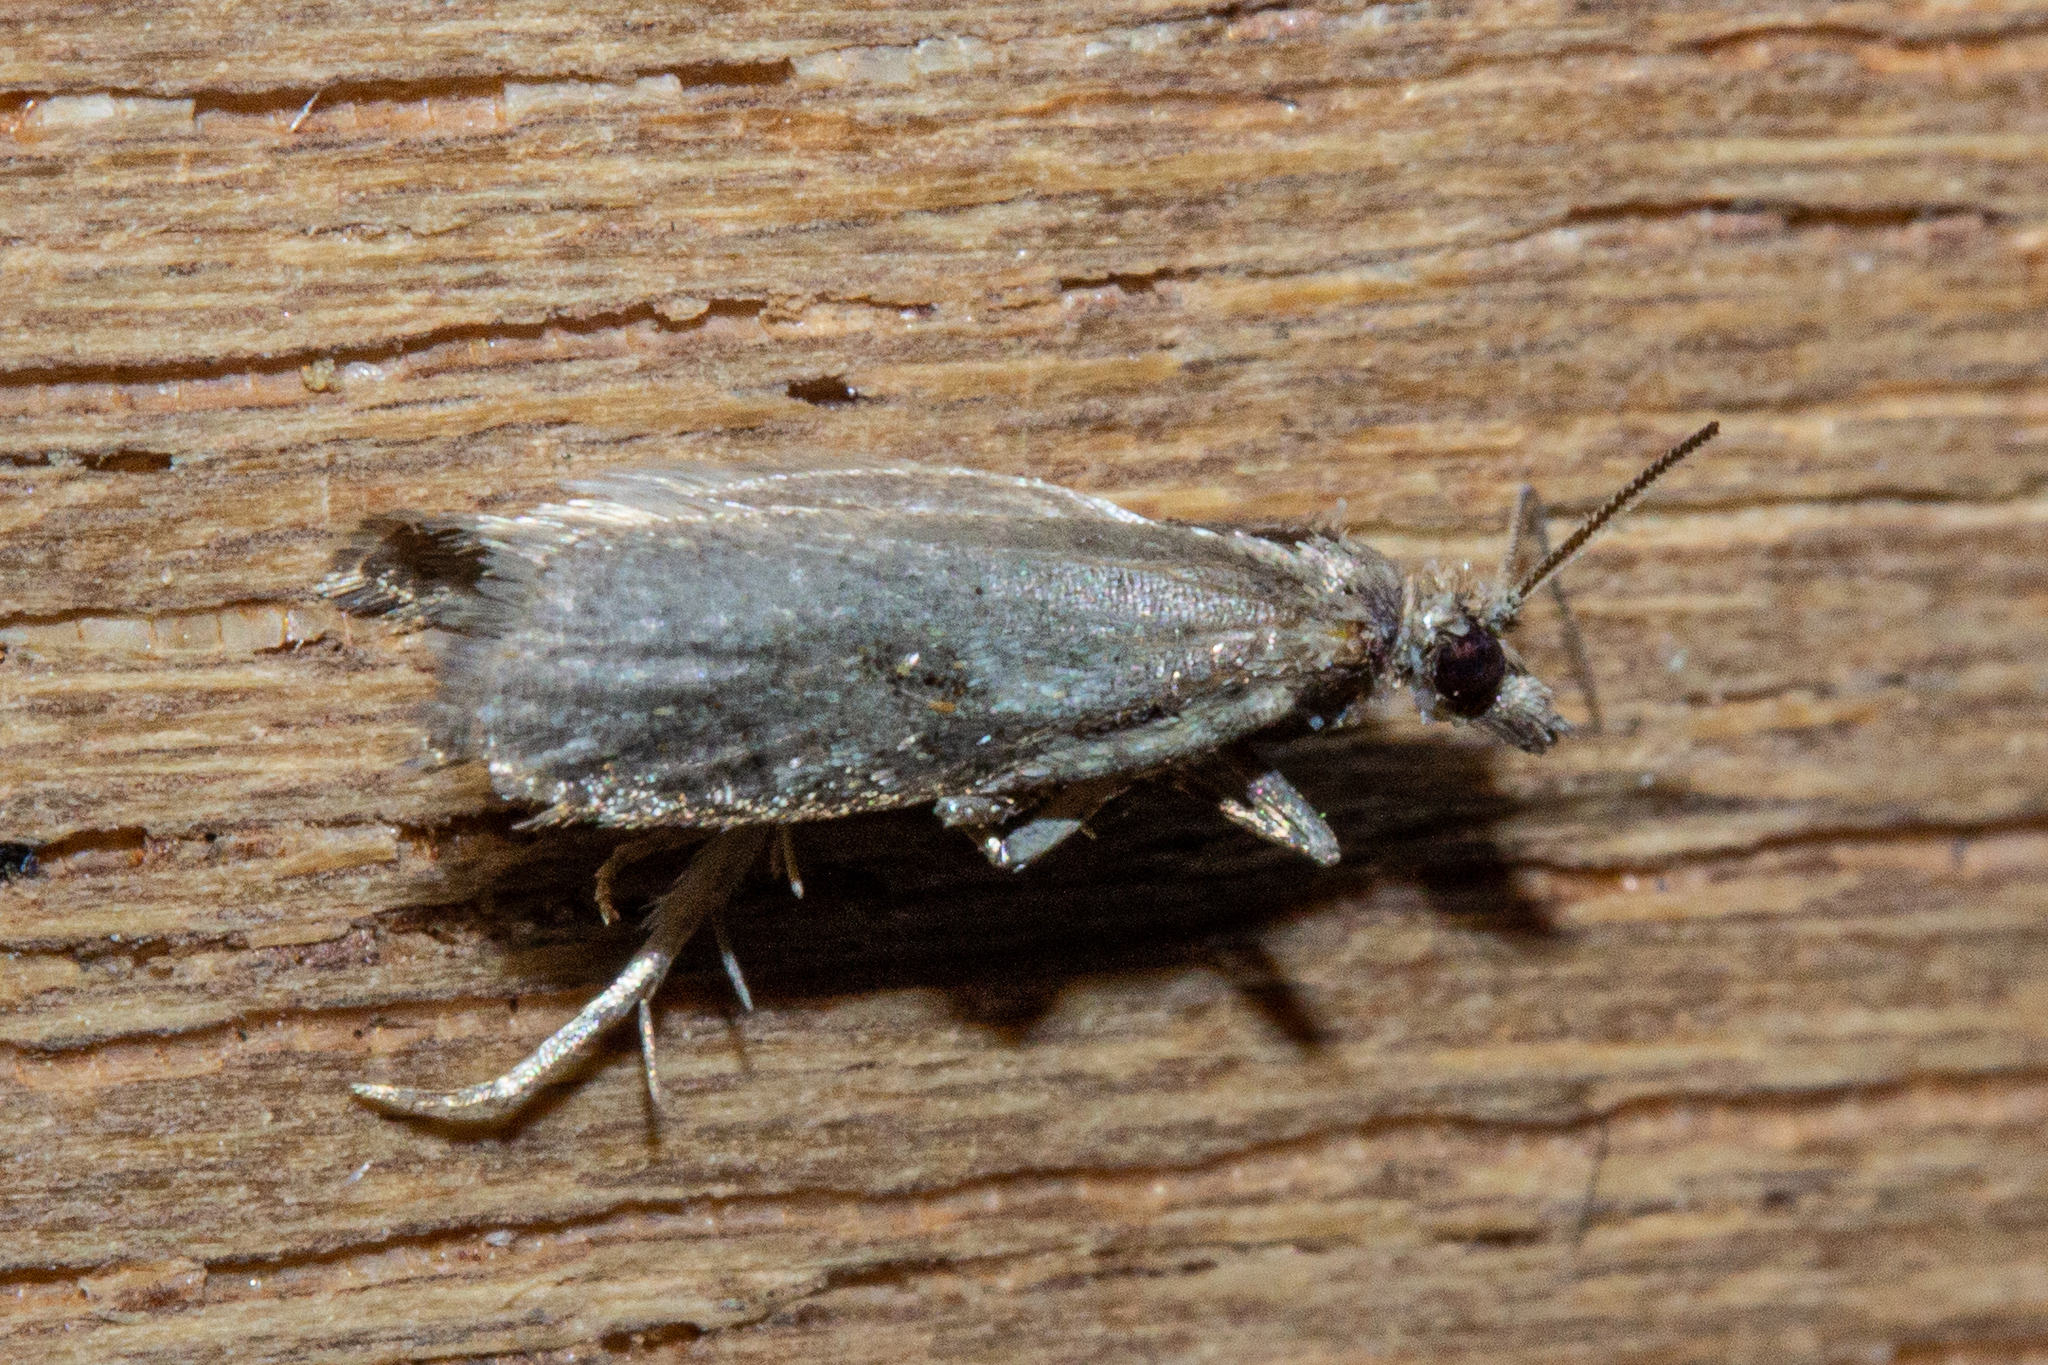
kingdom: Animalia
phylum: Arthropoda
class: Insecta
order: Lepidoptera
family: Tortricidae
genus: Capua
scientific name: Capua semiferana
